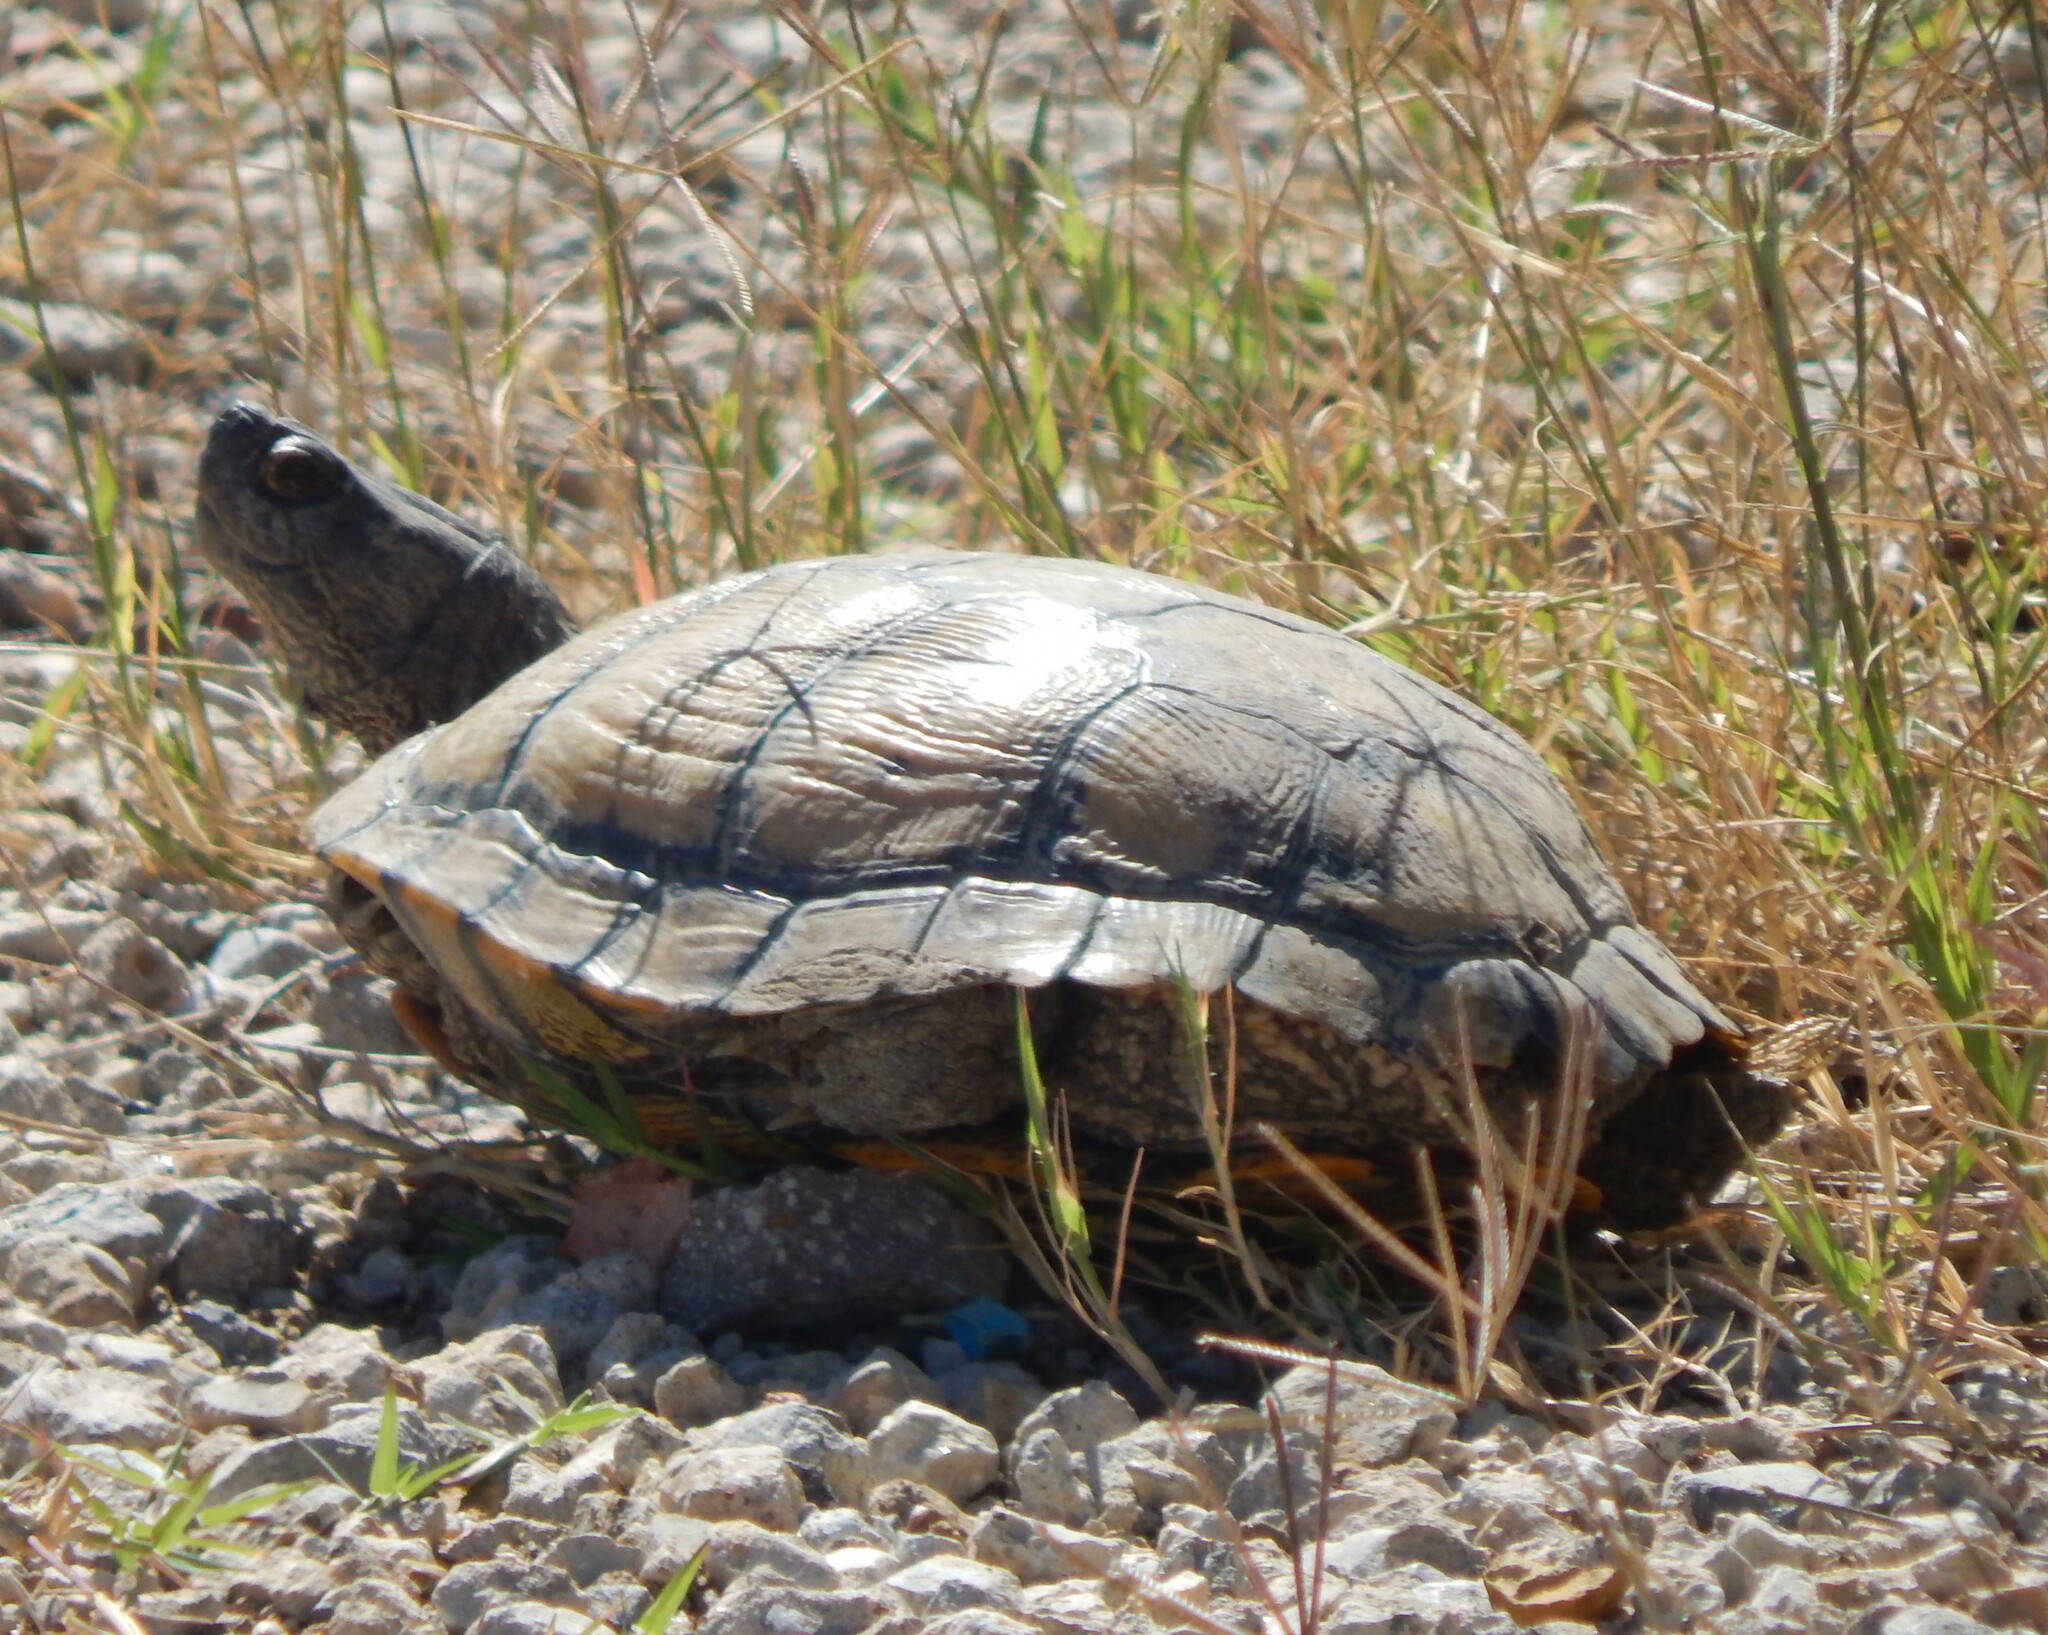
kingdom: Animalia
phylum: Chordata
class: Testudines
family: Emydidae
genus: Trachemys
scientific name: Trachemys scripta
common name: Slider
